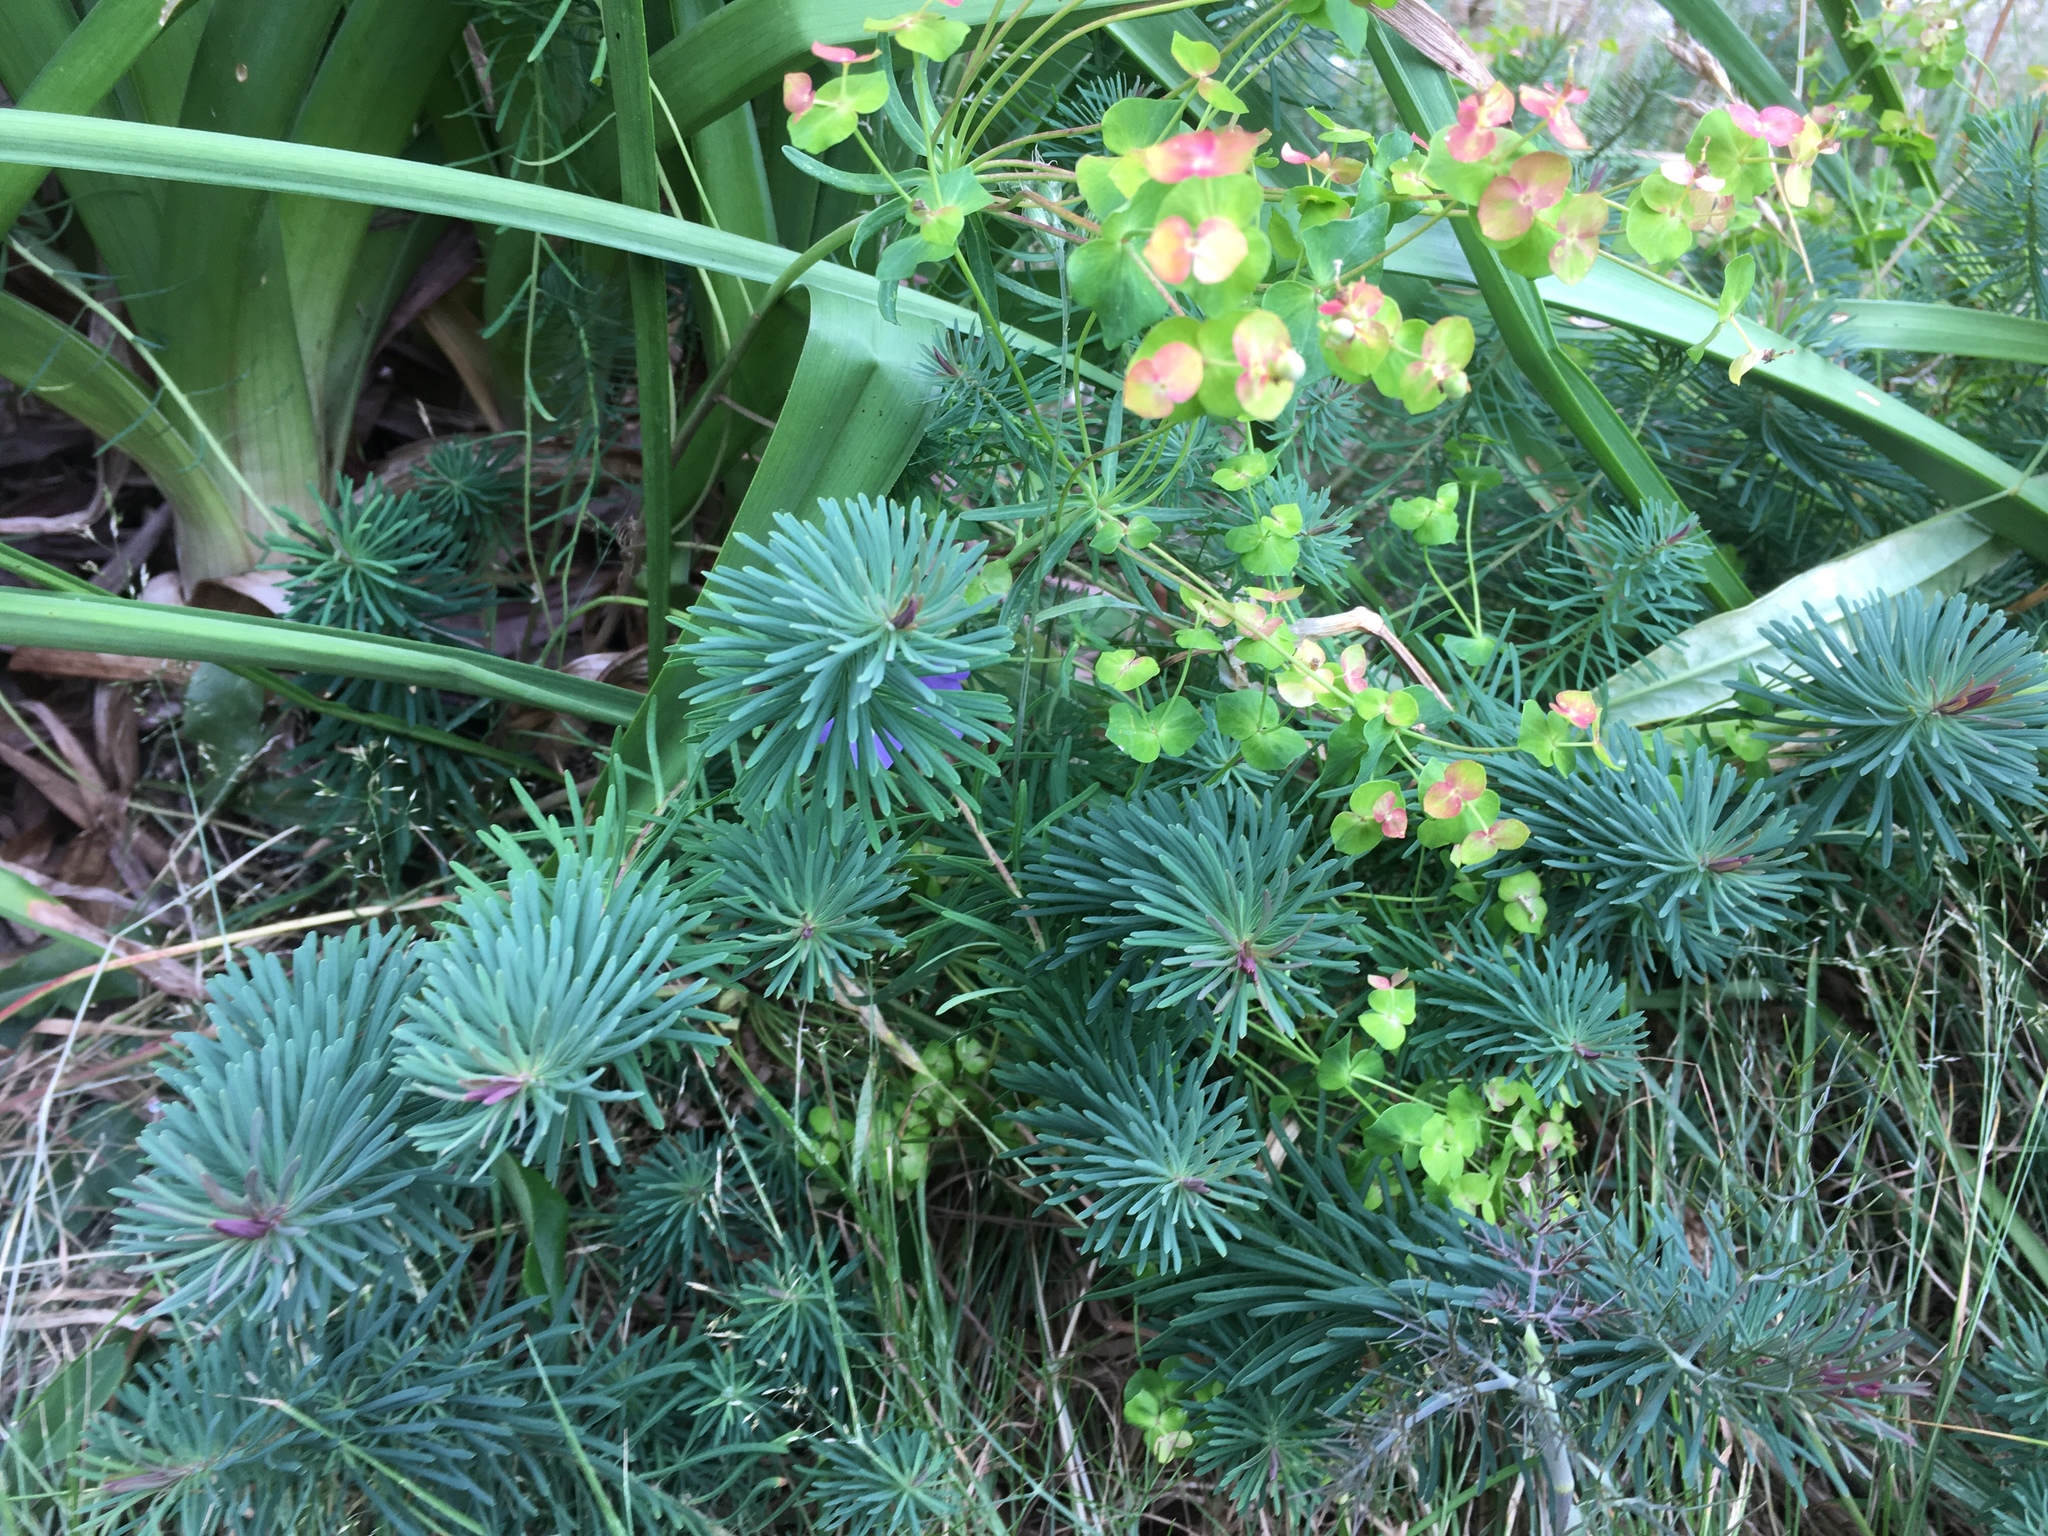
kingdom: Plantae
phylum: Tracheophyta
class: Magnoliopsida
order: Malpighiales
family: Euphorbiaceae
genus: Euphorbia
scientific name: Euphorbia cyparissias
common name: Cypress spurge
